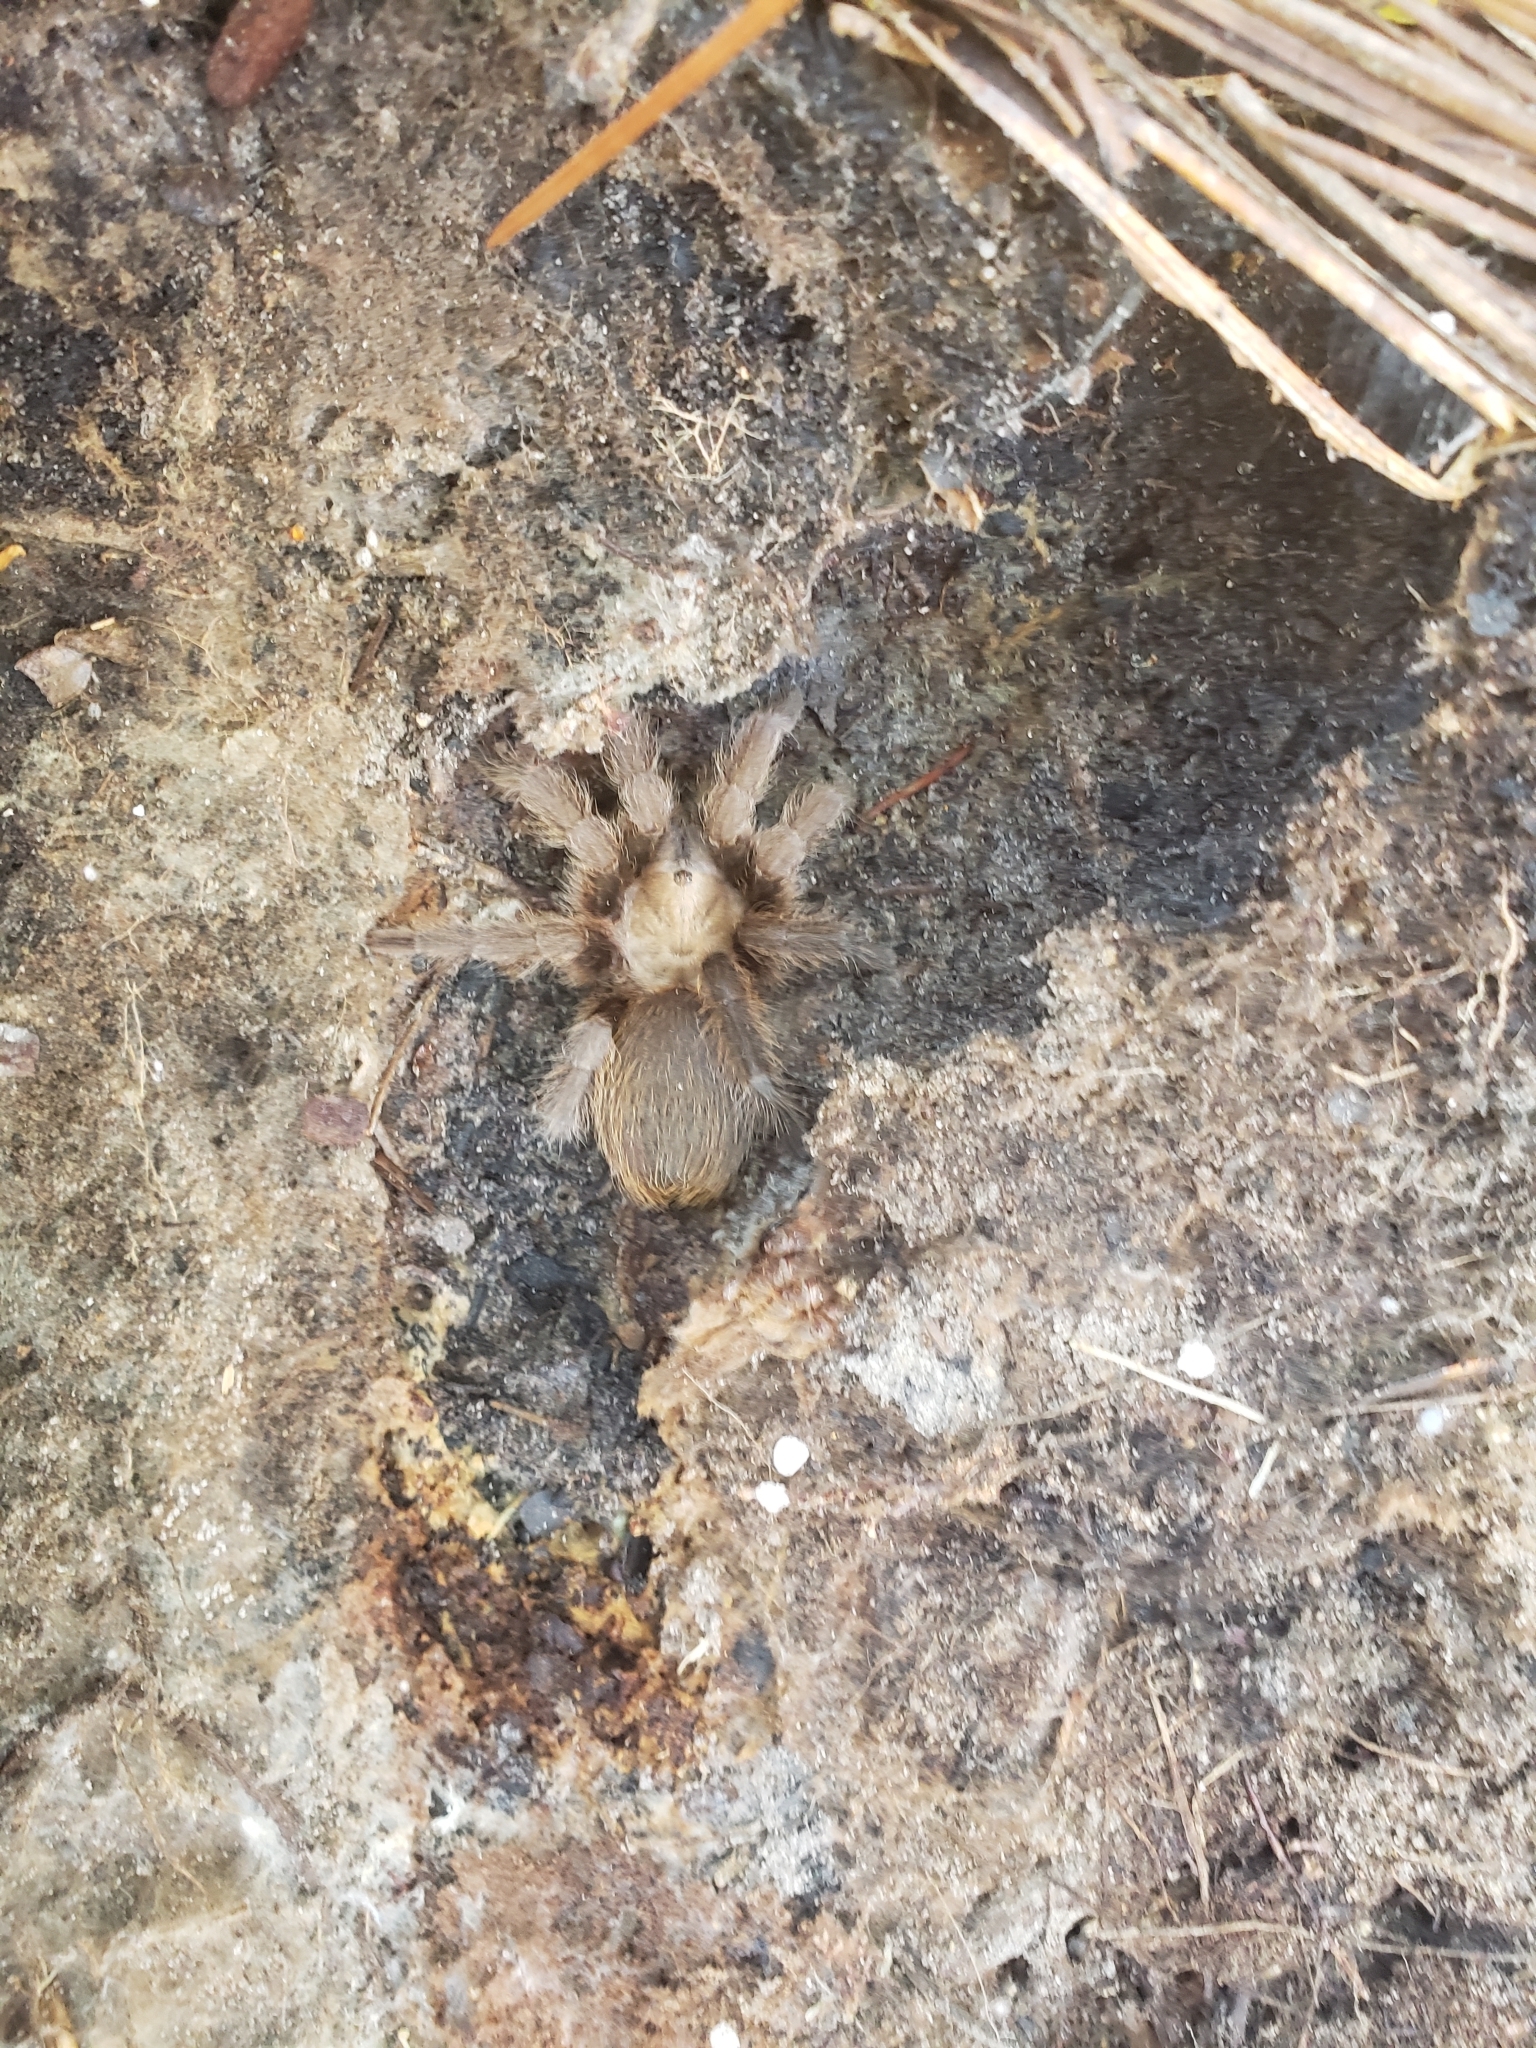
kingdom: Animalia
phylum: Arthropoda
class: Arachnida
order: Araneae
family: Theraphosidae
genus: Aphonopelma
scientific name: Aphonopelma hentzi
